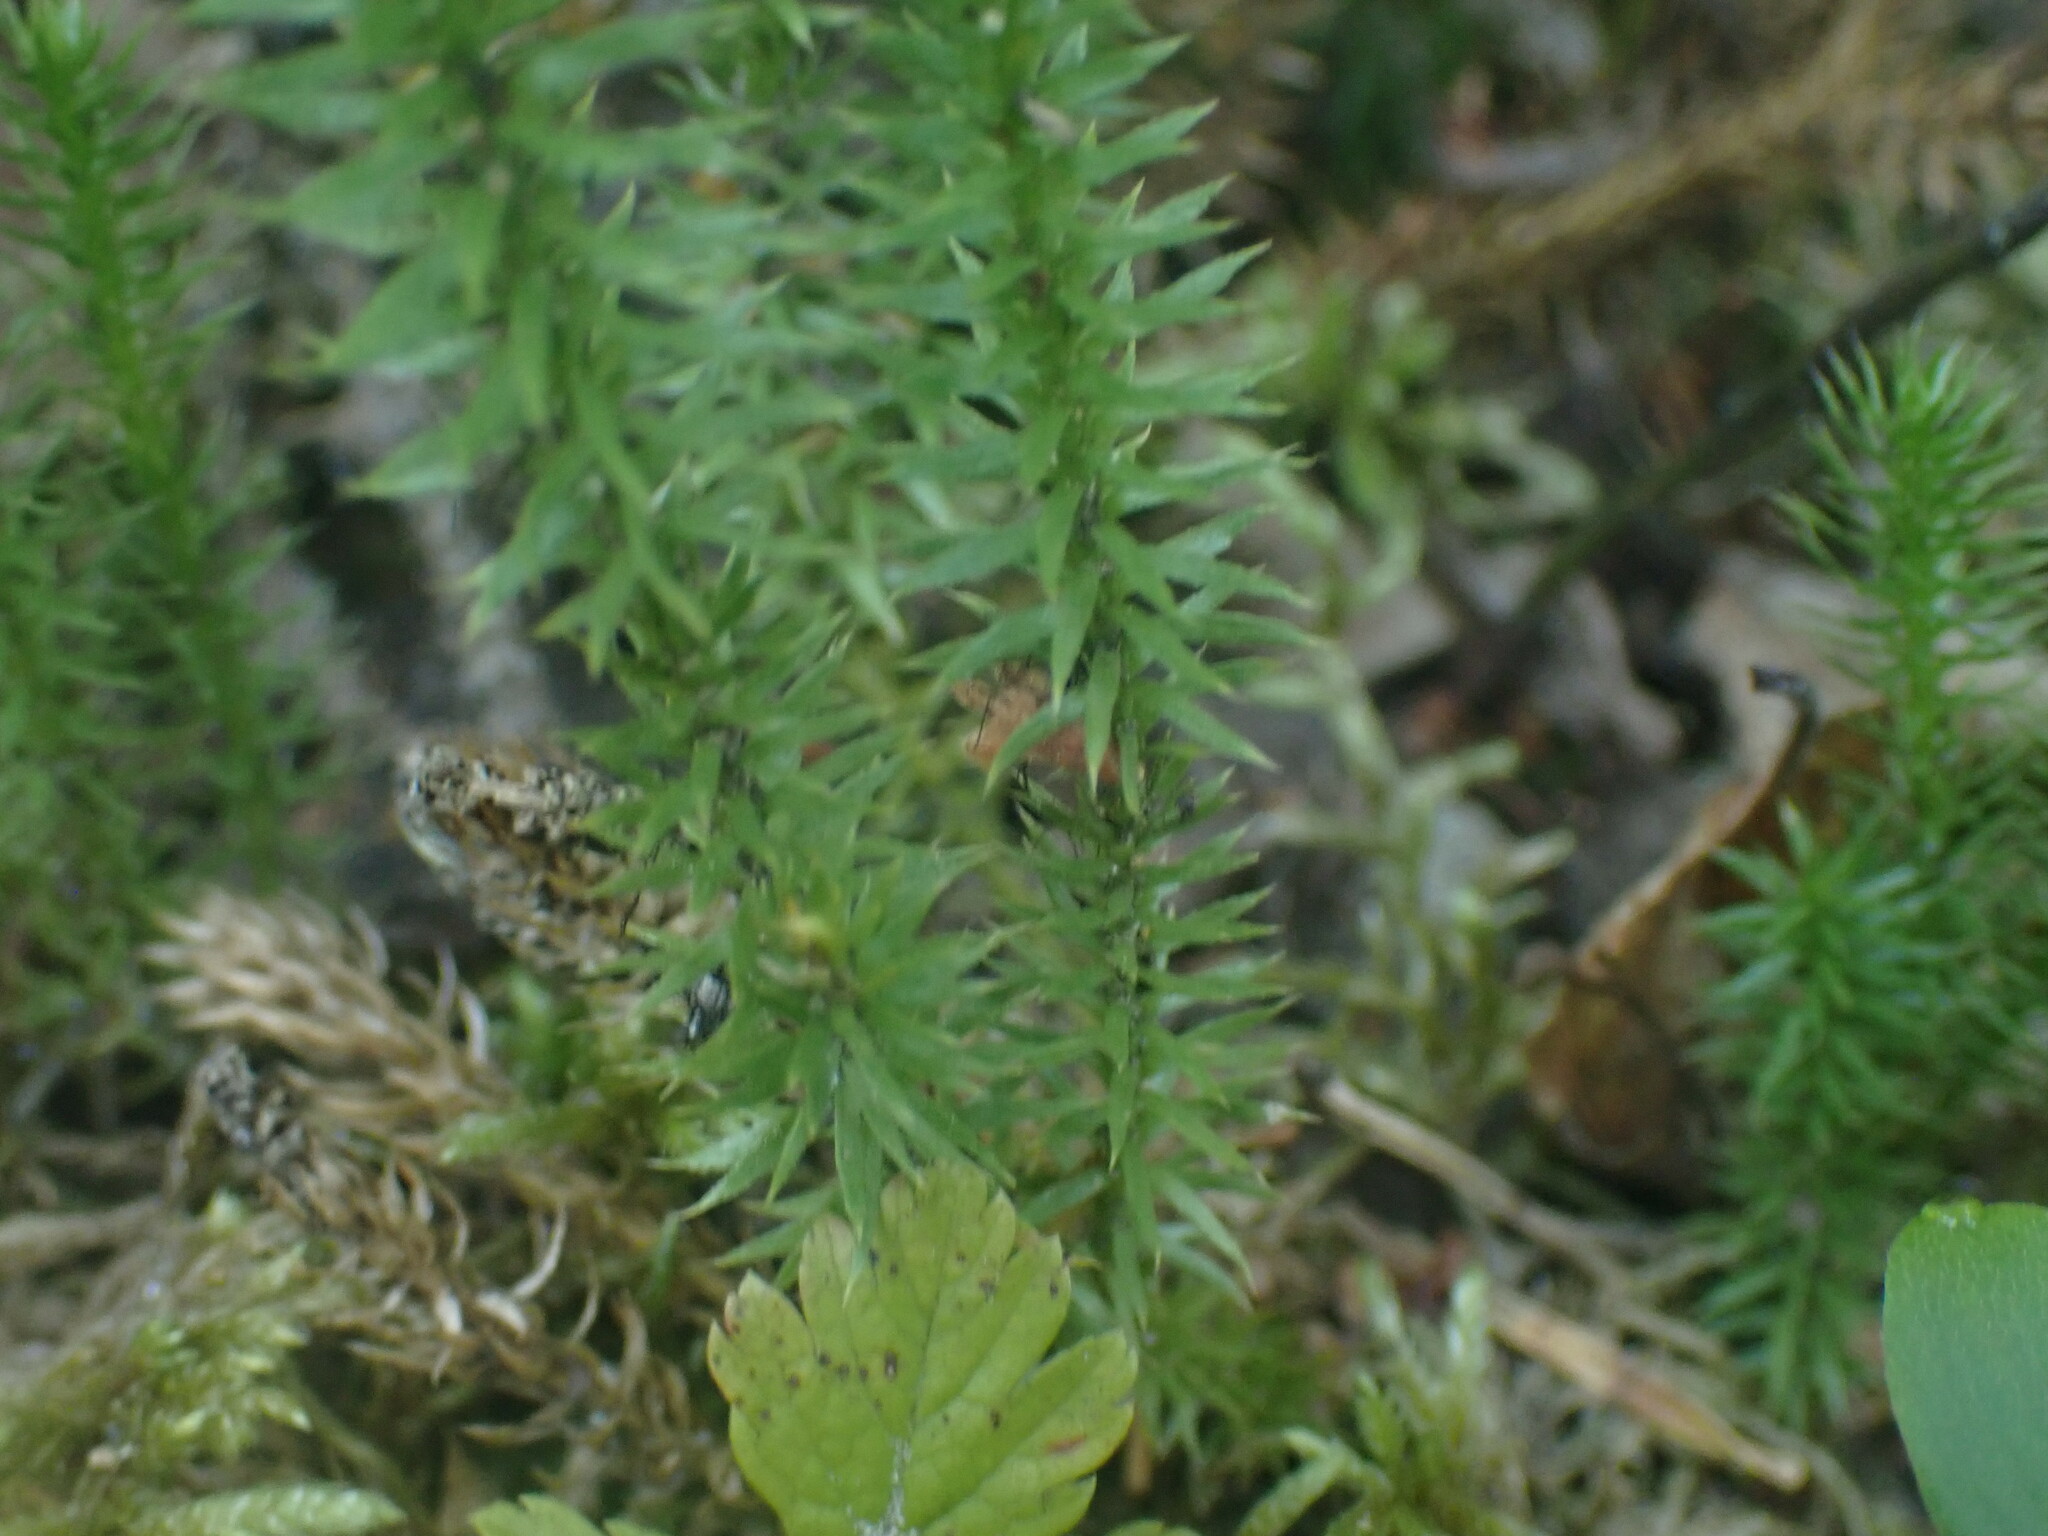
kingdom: Plantae
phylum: Tracheophyta
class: Lycopodiopsida
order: Lycopodiales
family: Lycopodiaceae
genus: Spinulum
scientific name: Spinulum annotinum
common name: Interrupted club-moss
